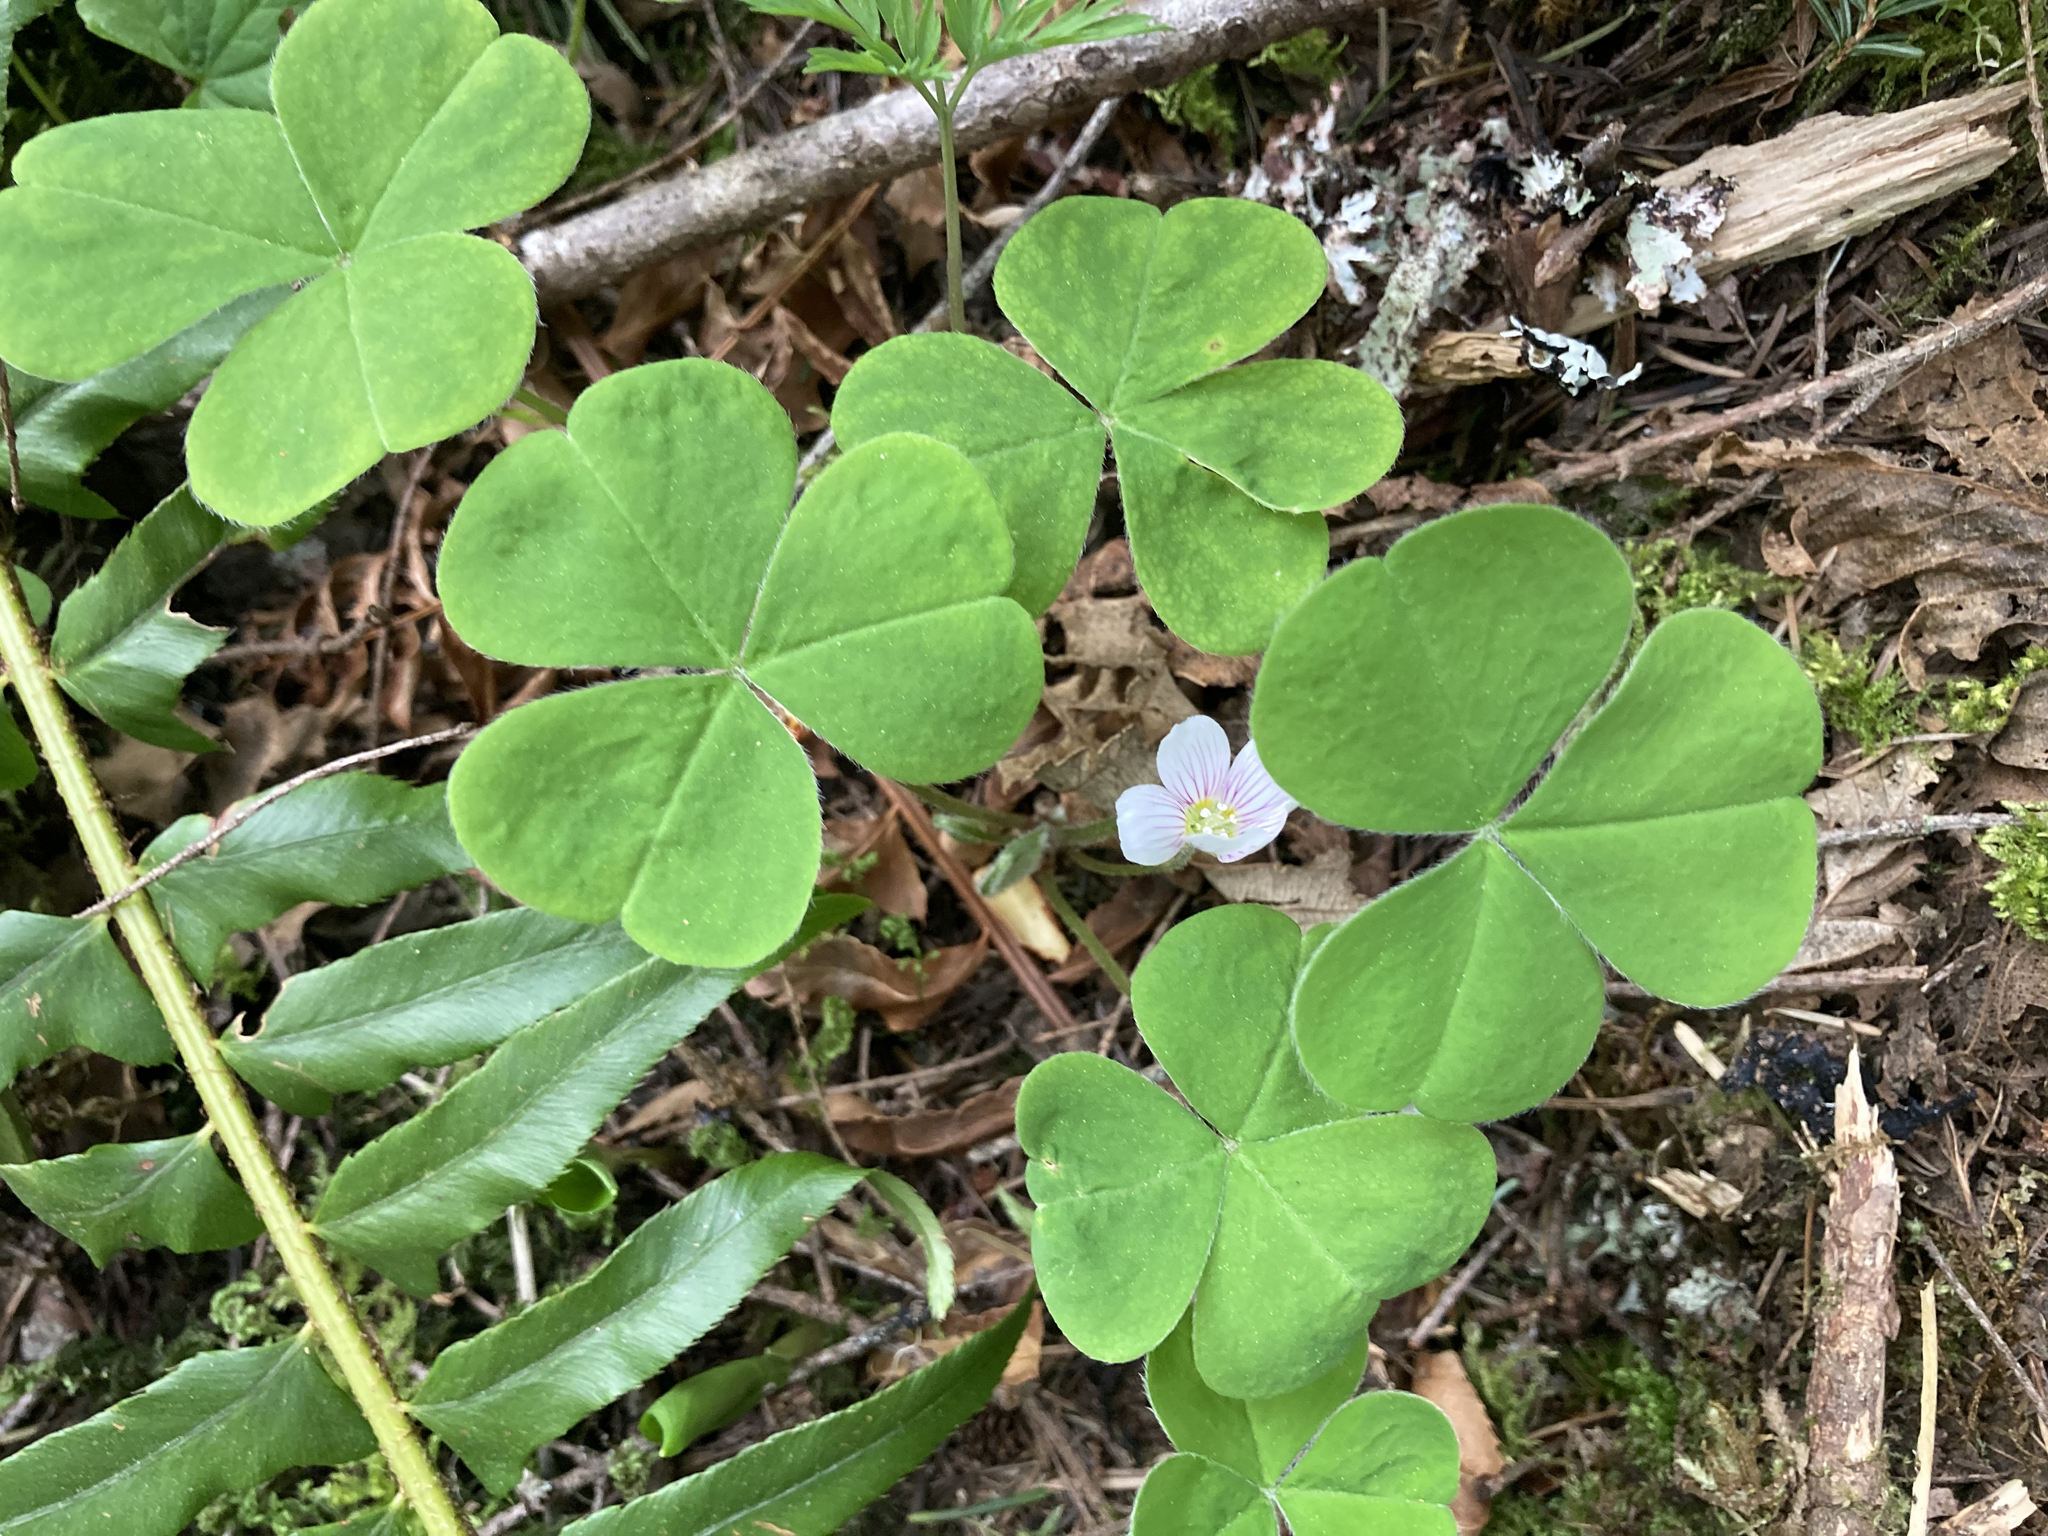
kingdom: Plantae
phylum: Tracheophyta
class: Magnoliopsida
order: Oxalidales
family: Oxalidaceae
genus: Oxalis
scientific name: Oxalis oregana
